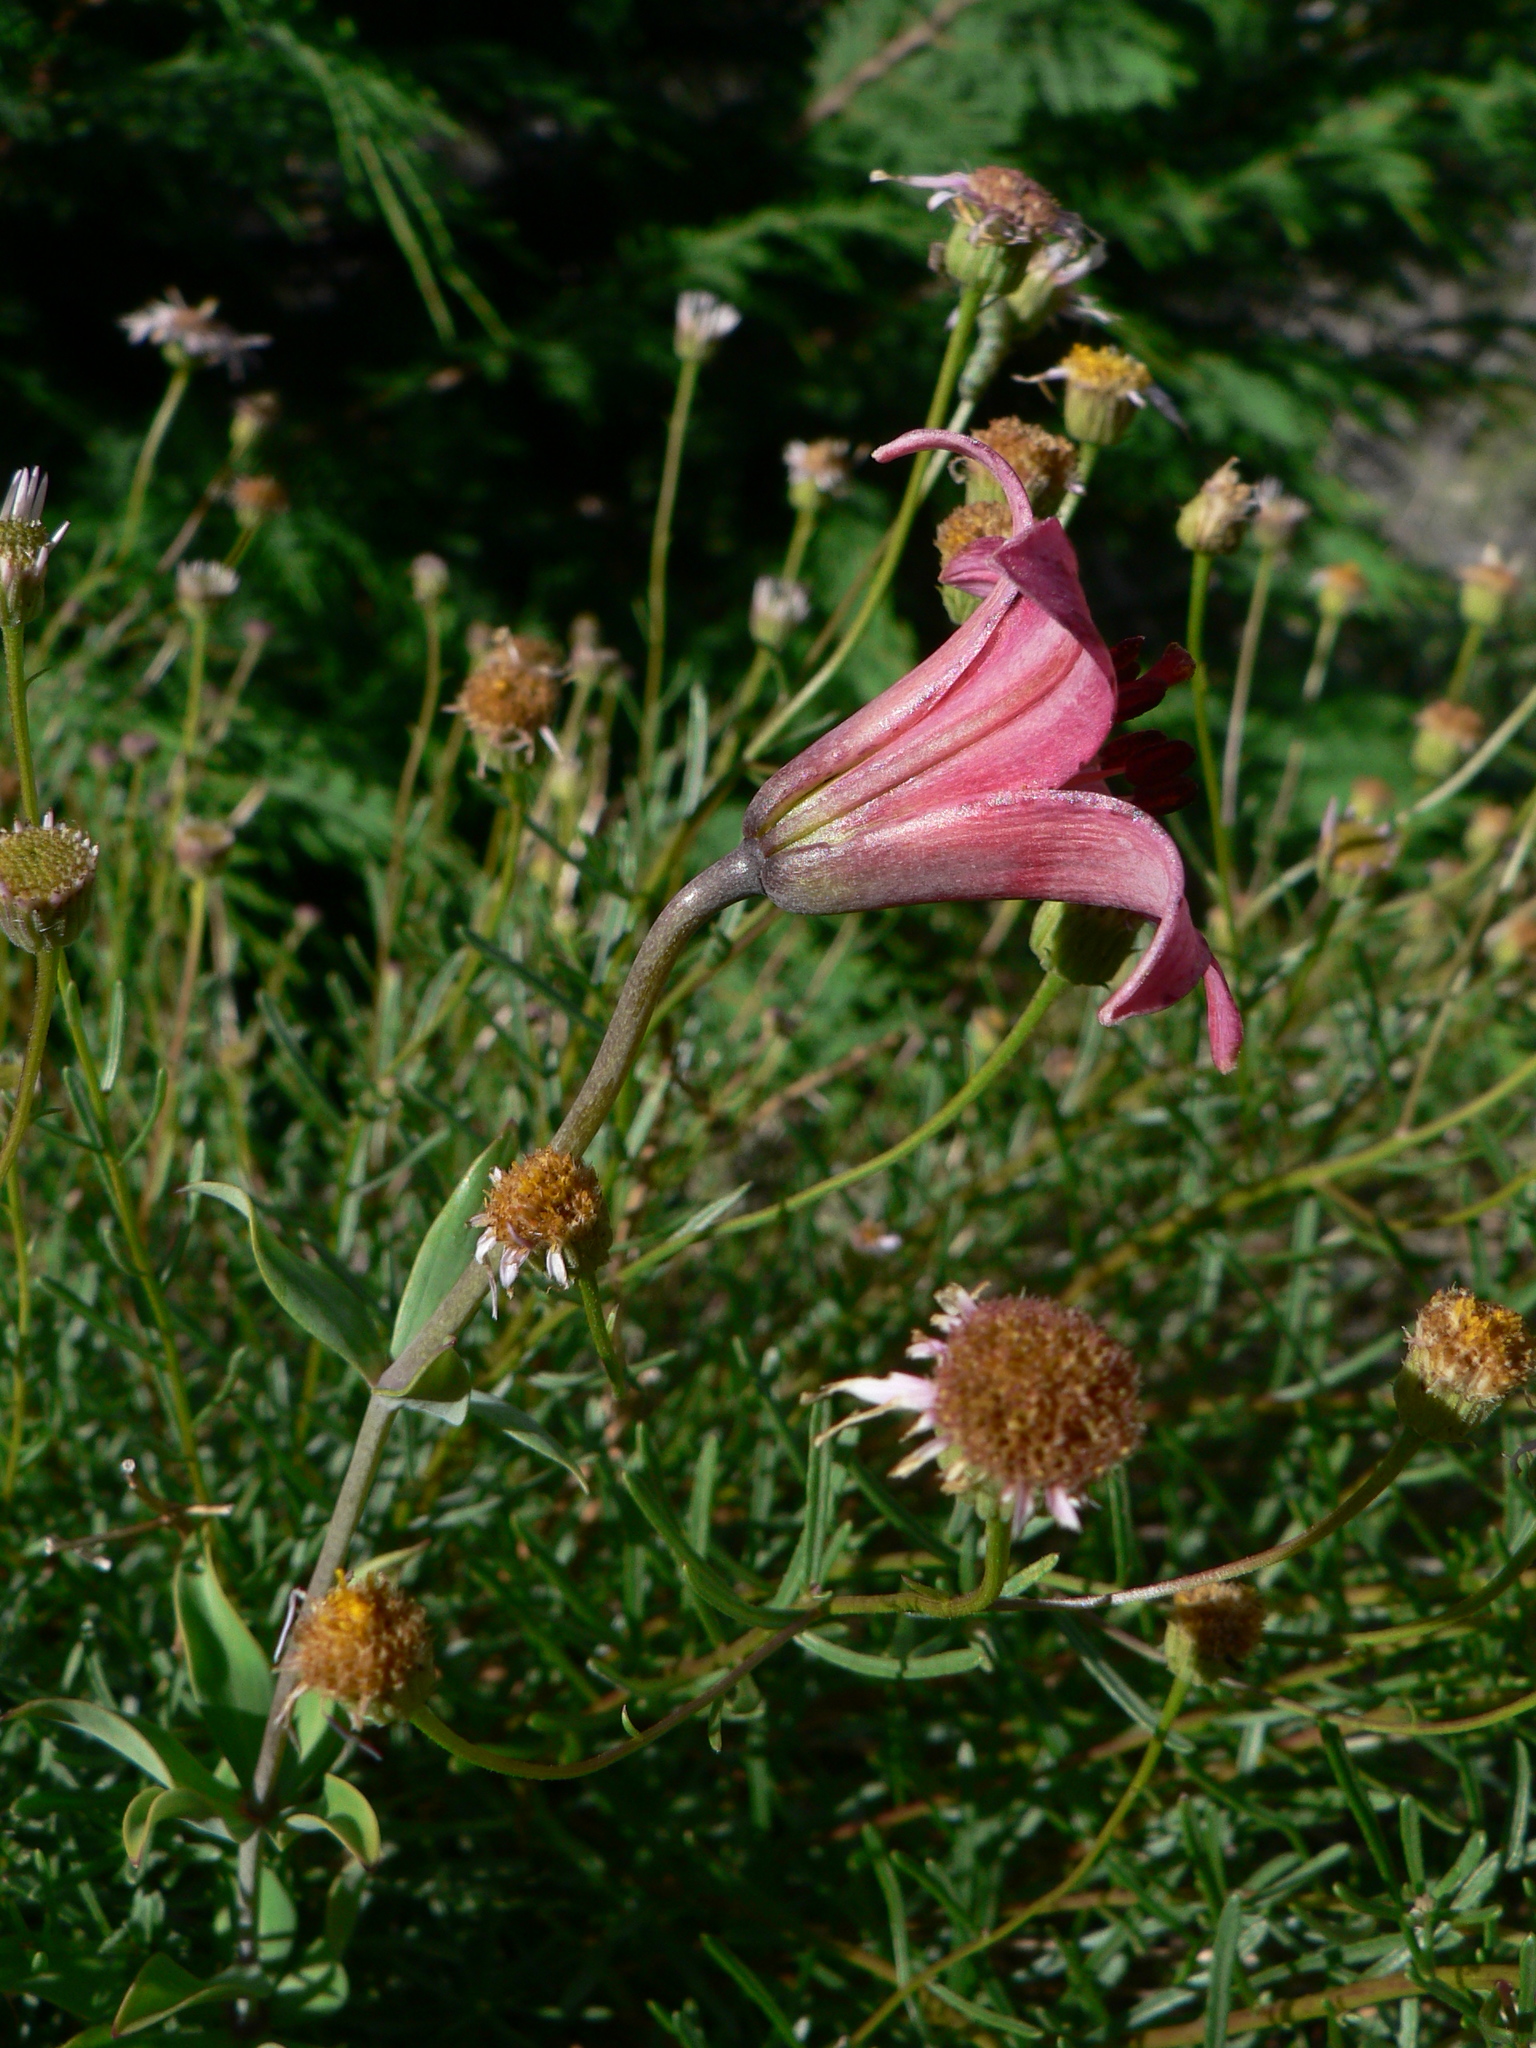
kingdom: Plantae
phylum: Tracheophyta
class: Liliopsida
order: Liliales
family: Liliaceae
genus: Lilium
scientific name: Lilium bolanderi
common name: Bolander's lily
